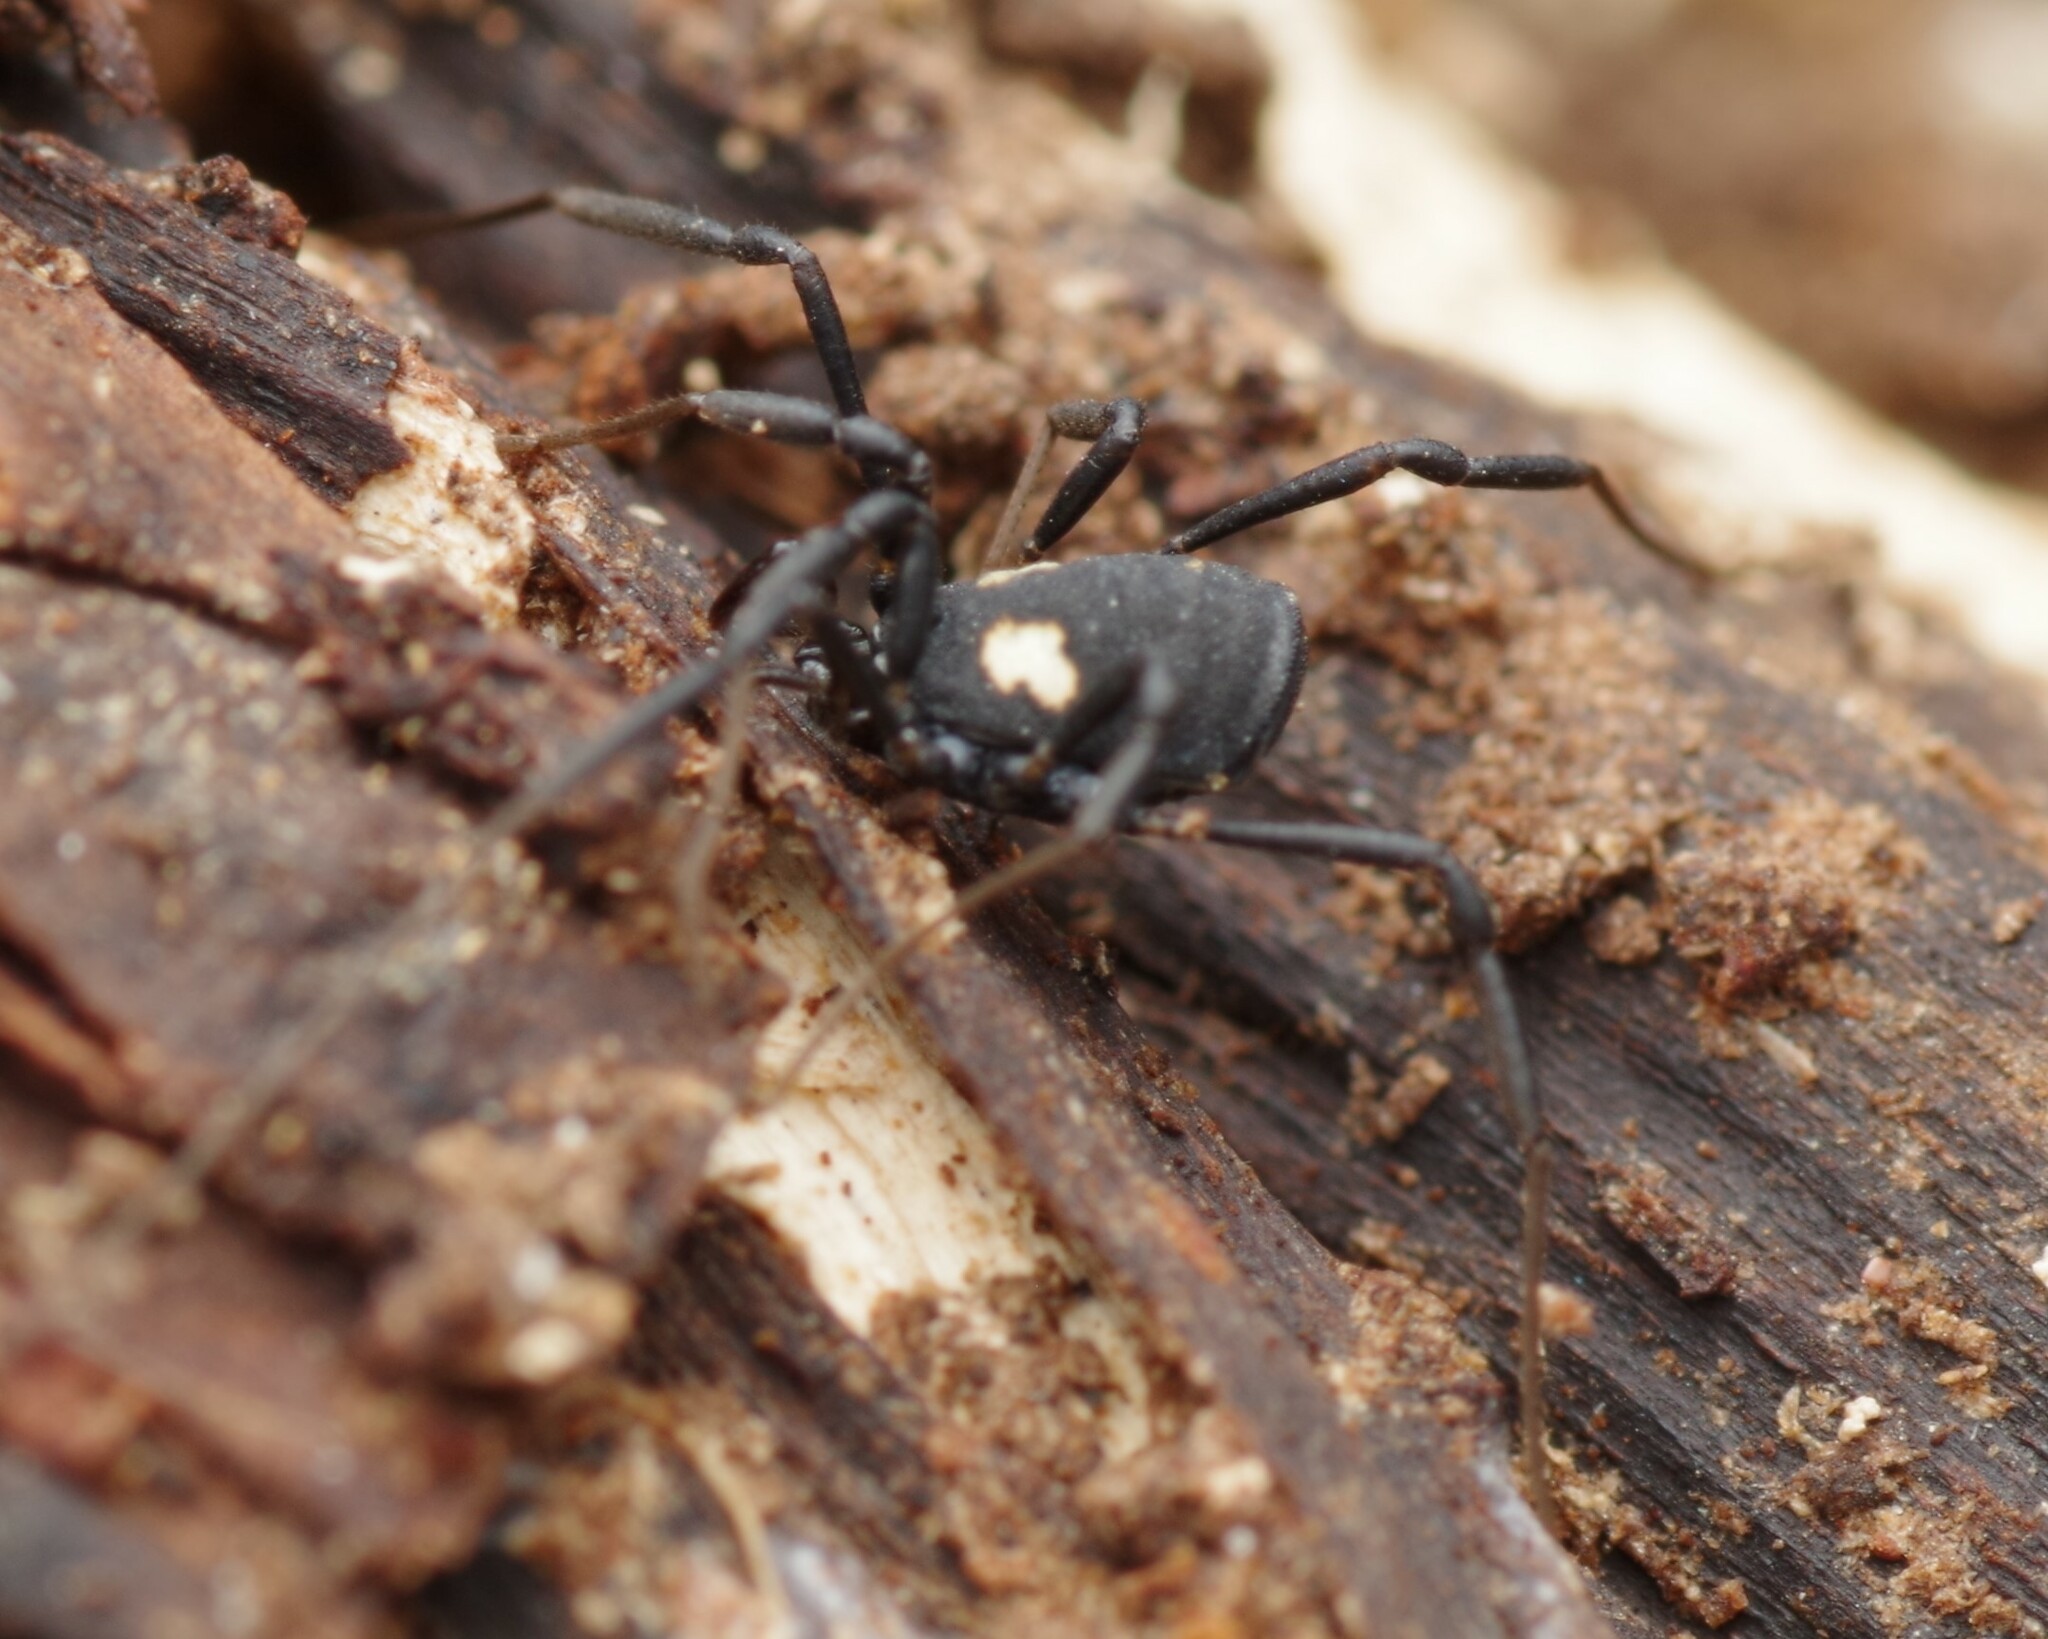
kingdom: Animalia
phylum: Arthropoda
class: Arachnida
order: Opiliones
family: Nemastomatidae
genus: Nemastoma
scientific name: Nemastoma bimaculatum
